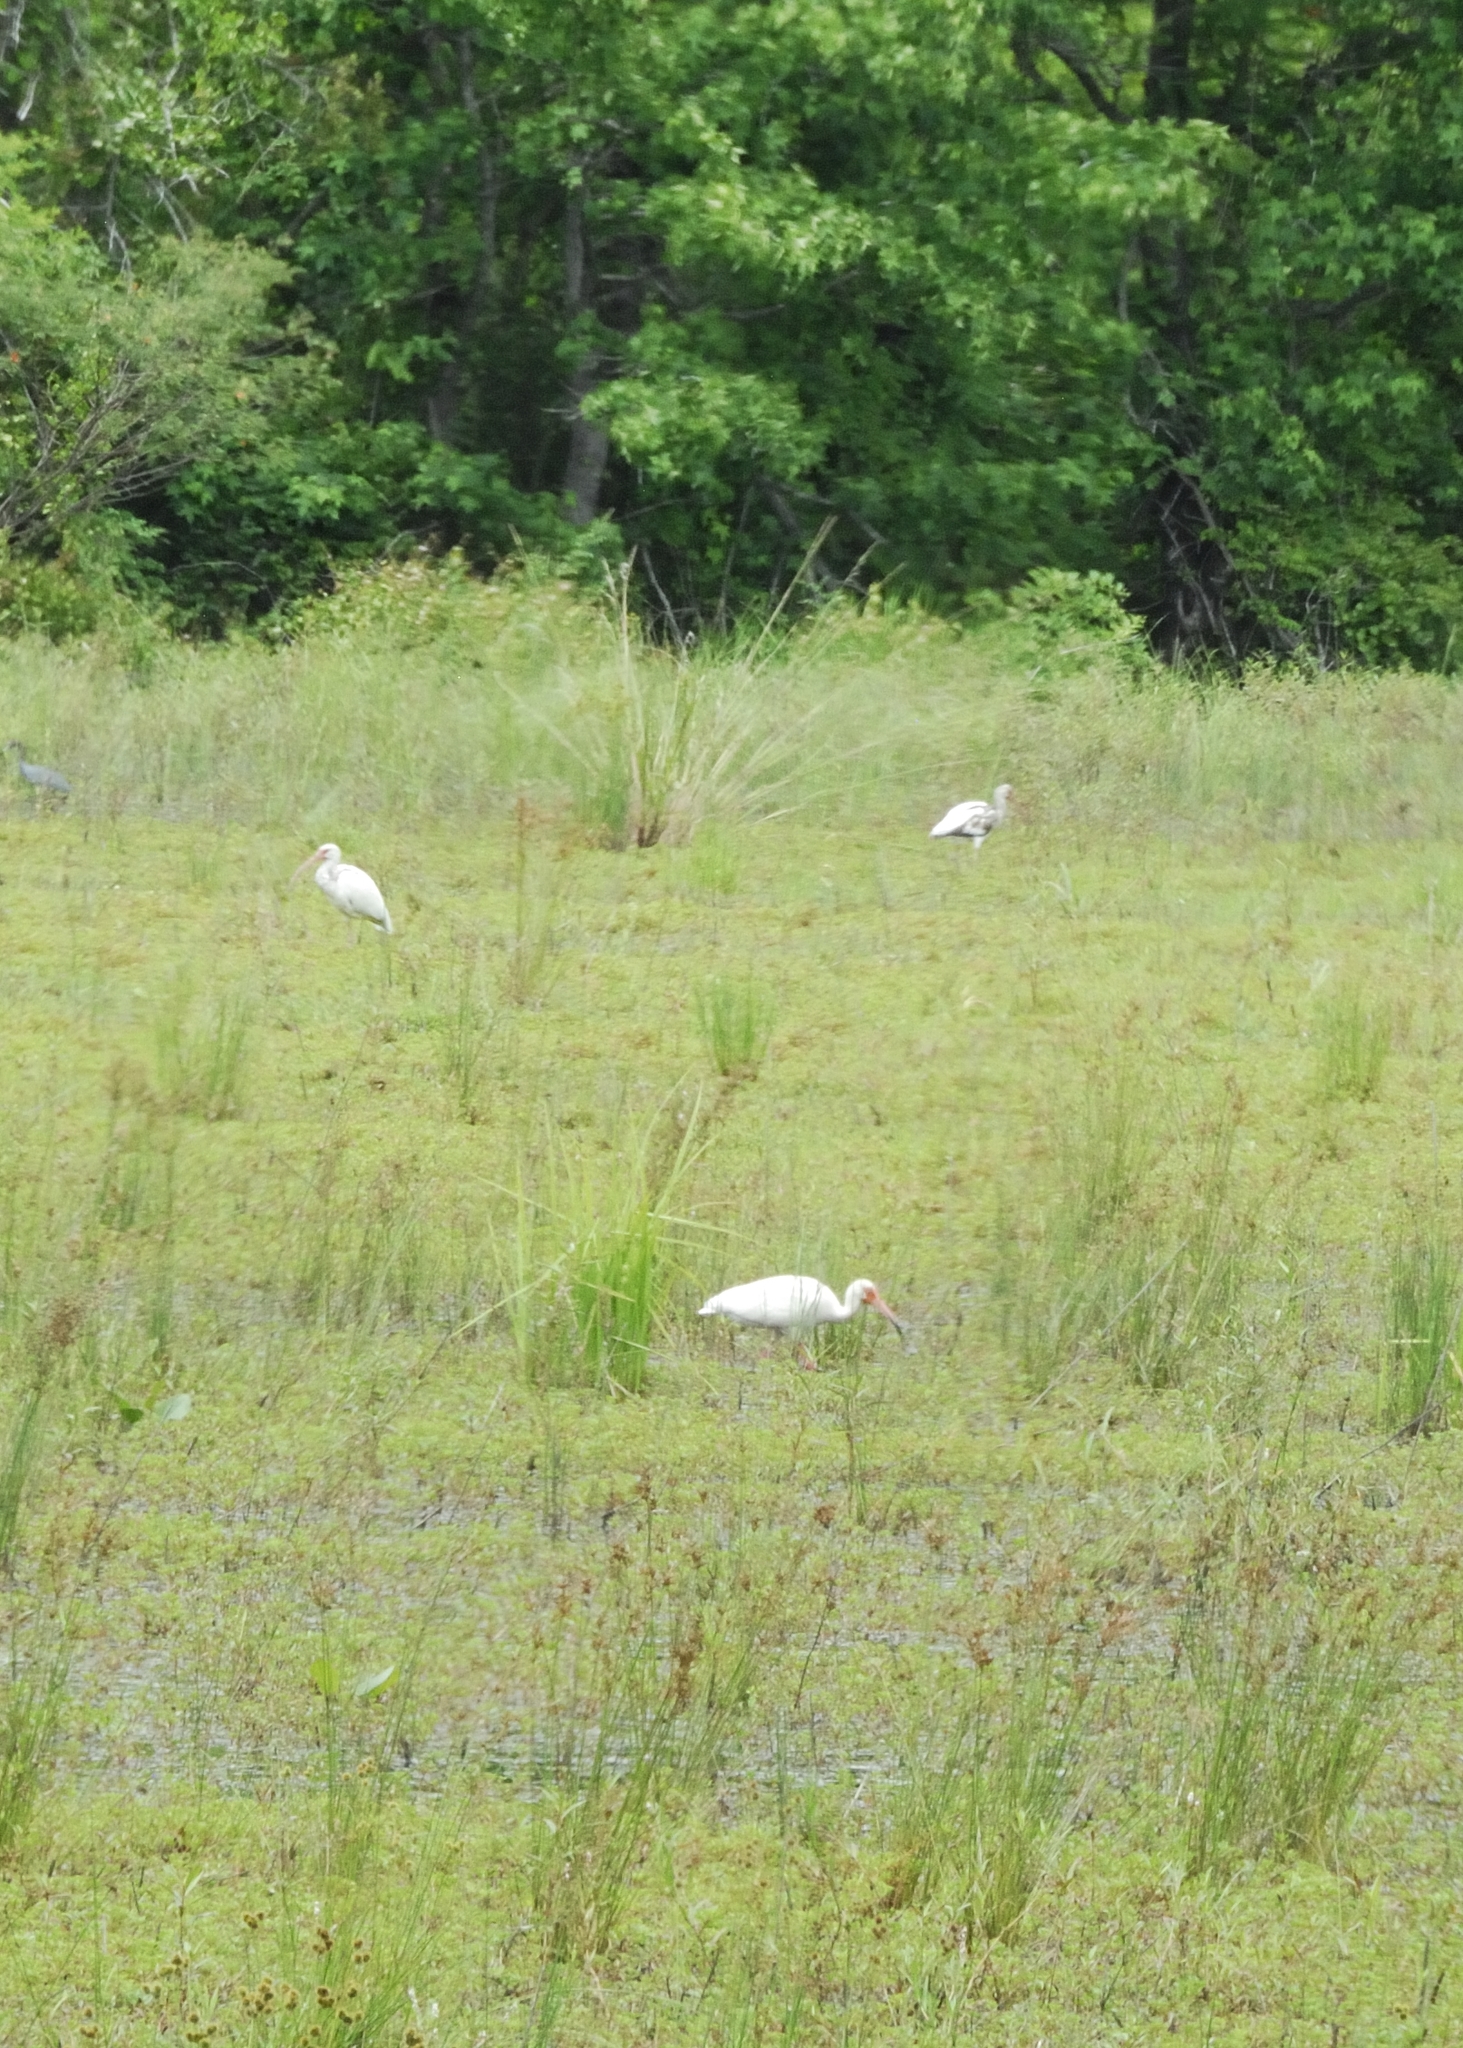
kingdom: Animalia
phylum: Chordata
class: Aves
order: Pelecaniformes
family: Threskiornithidae
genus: Eudocimus
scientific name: Eudocimus albus
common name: White ibis
